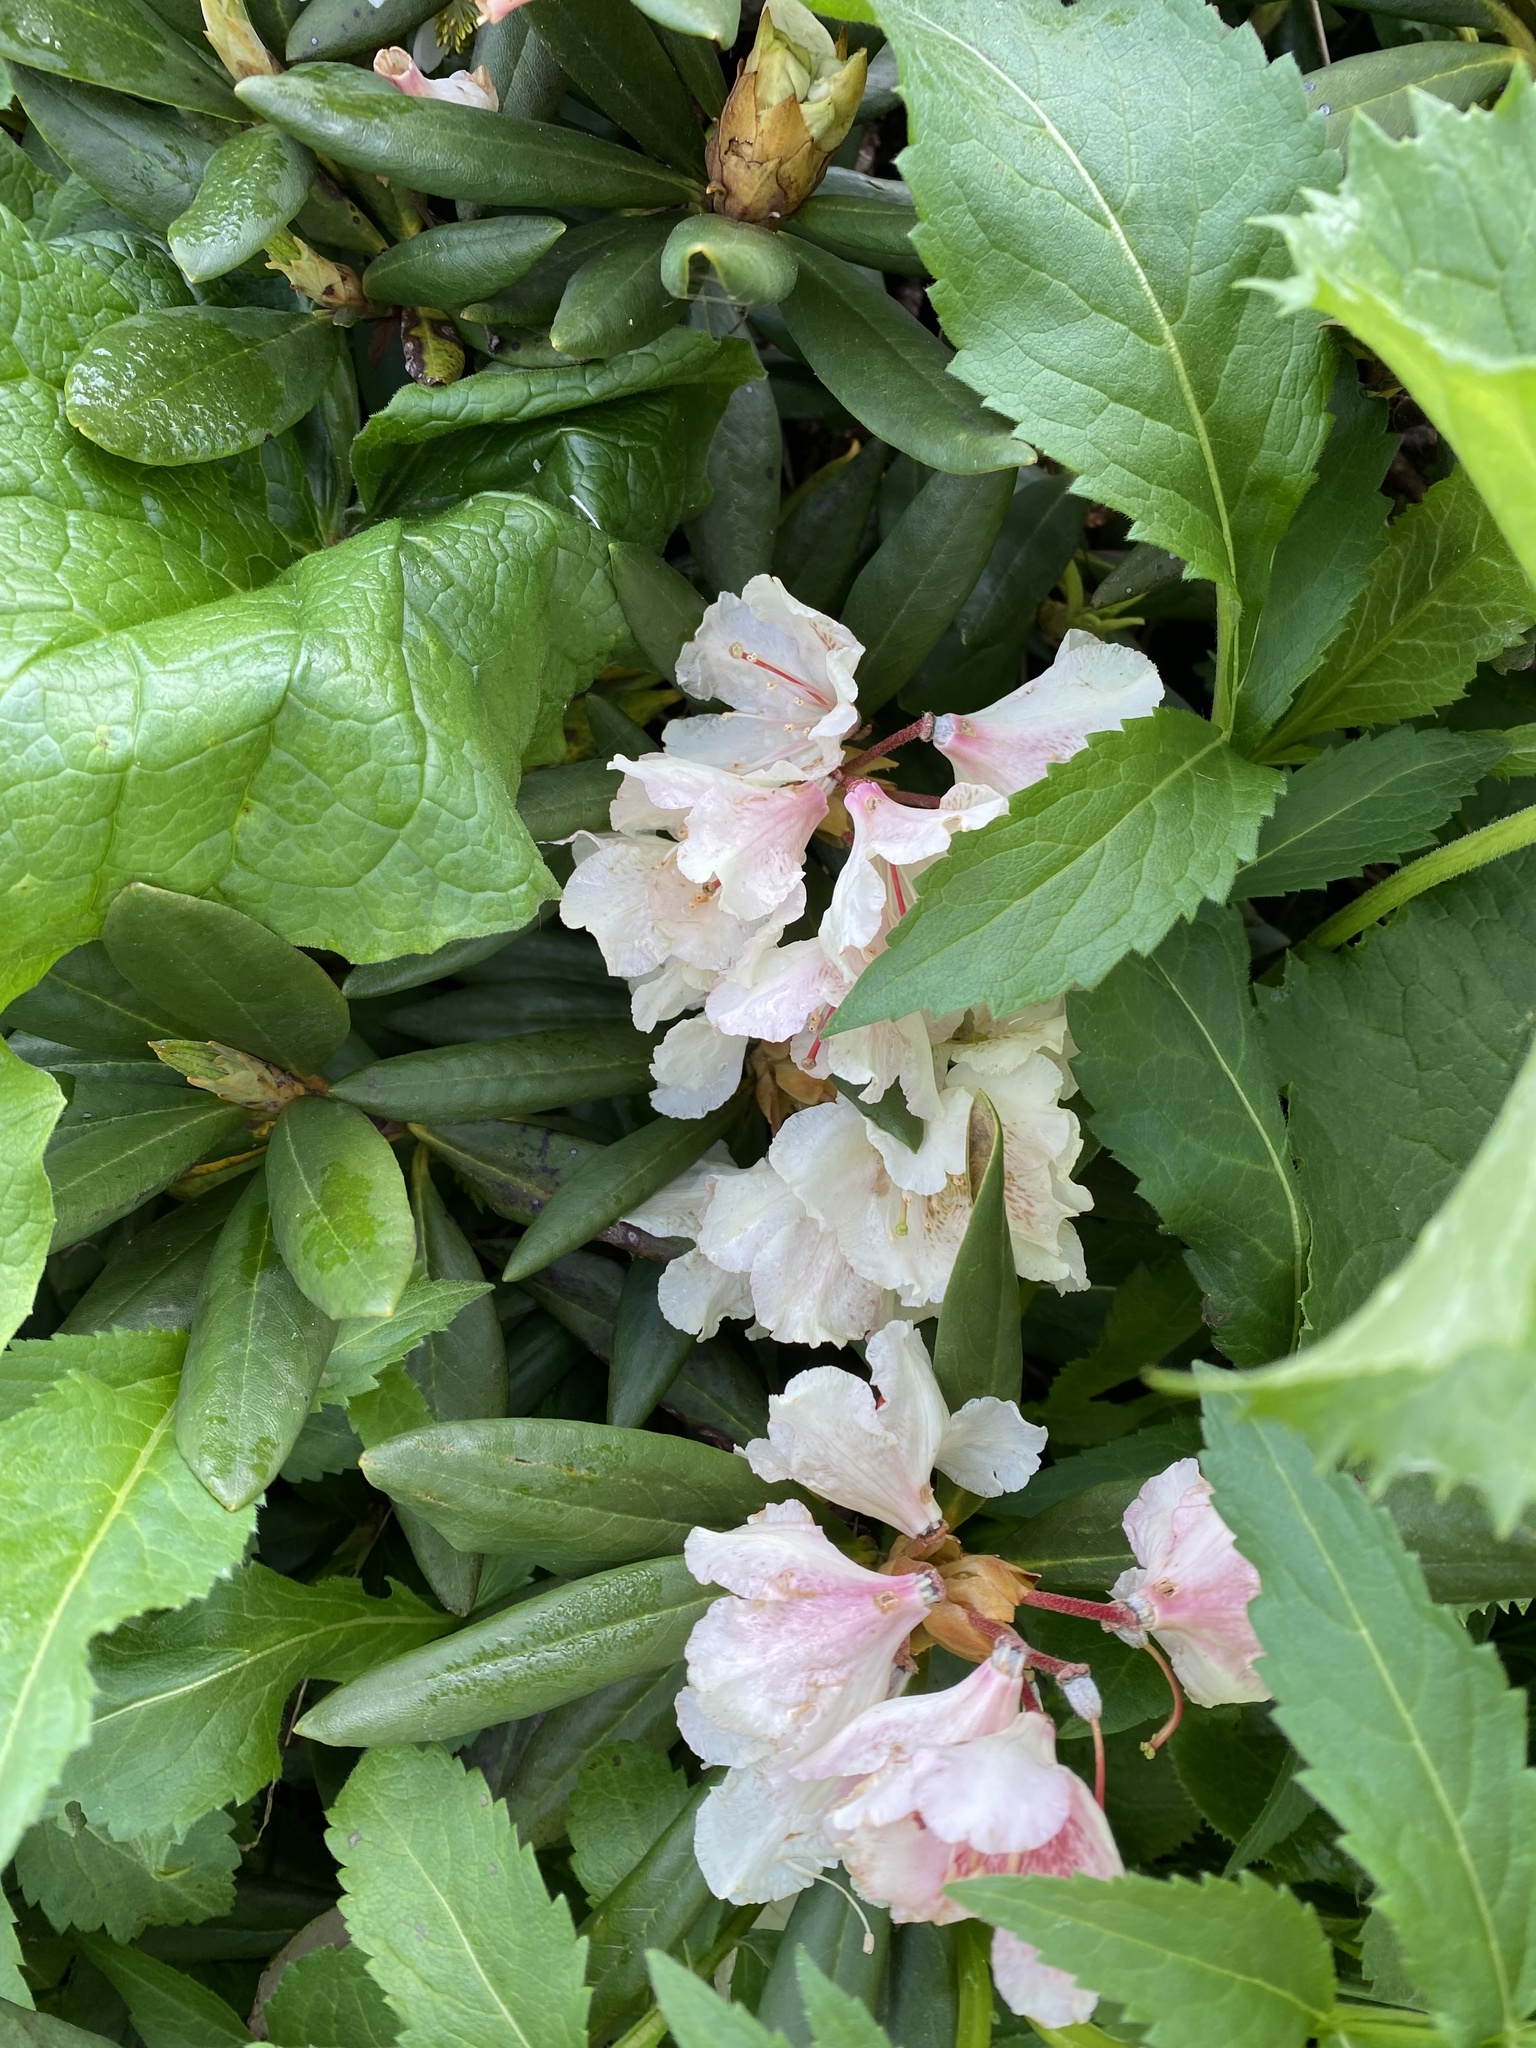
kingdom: Plantae
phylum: Tracheophyta
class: Magnoliopsida
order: Ericales
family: Ericaceae
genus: Rhododendron
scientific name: Rhododendron caucasicum
